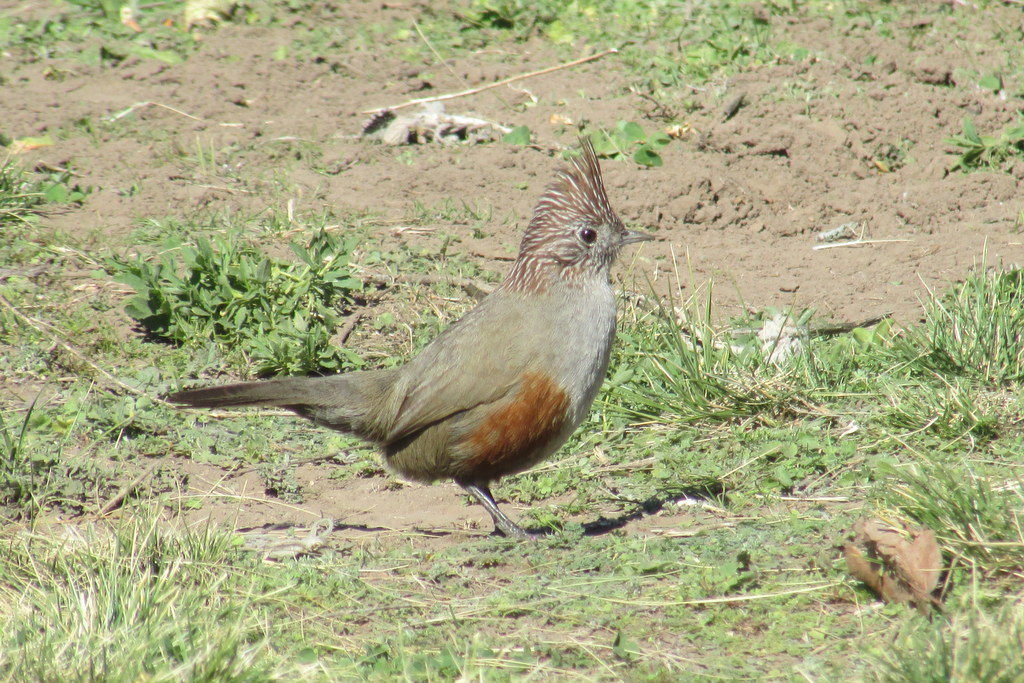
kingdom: Animalia
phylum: Chordata
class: Aves
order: Passeriformes
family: Rhinocryptidae
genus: Rhinocrypta
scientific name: Rhinocrypta lanceolata
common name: Crested gallito
